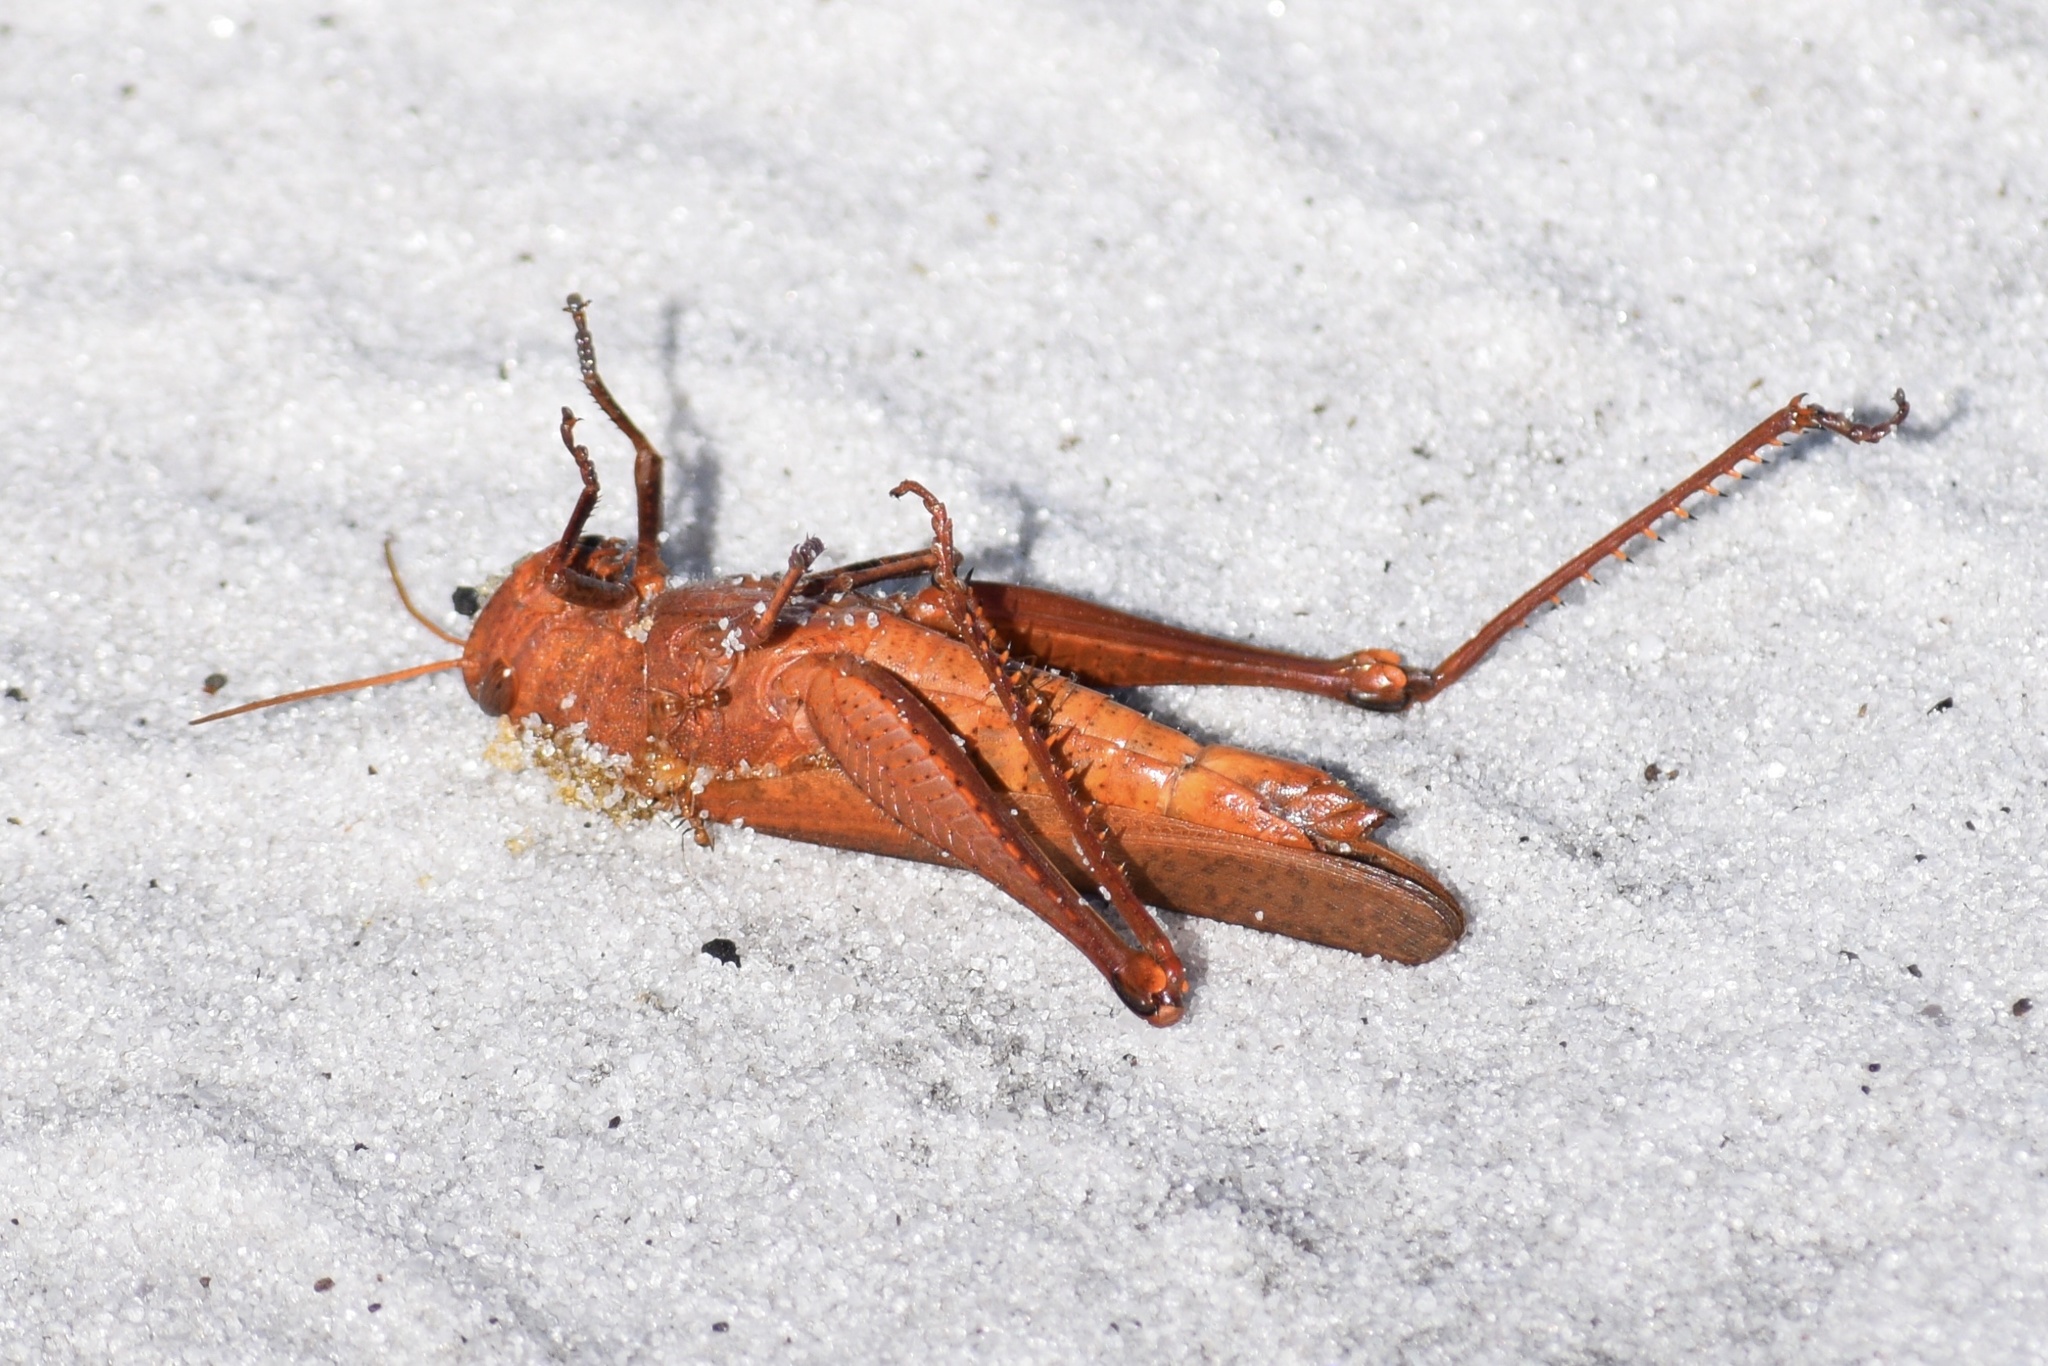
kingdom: Animalia
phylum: Arthropoda
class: Insecta
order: Orthoptera
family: Acrididae
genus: Schistocerca
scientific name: Schistocerca damnifica
